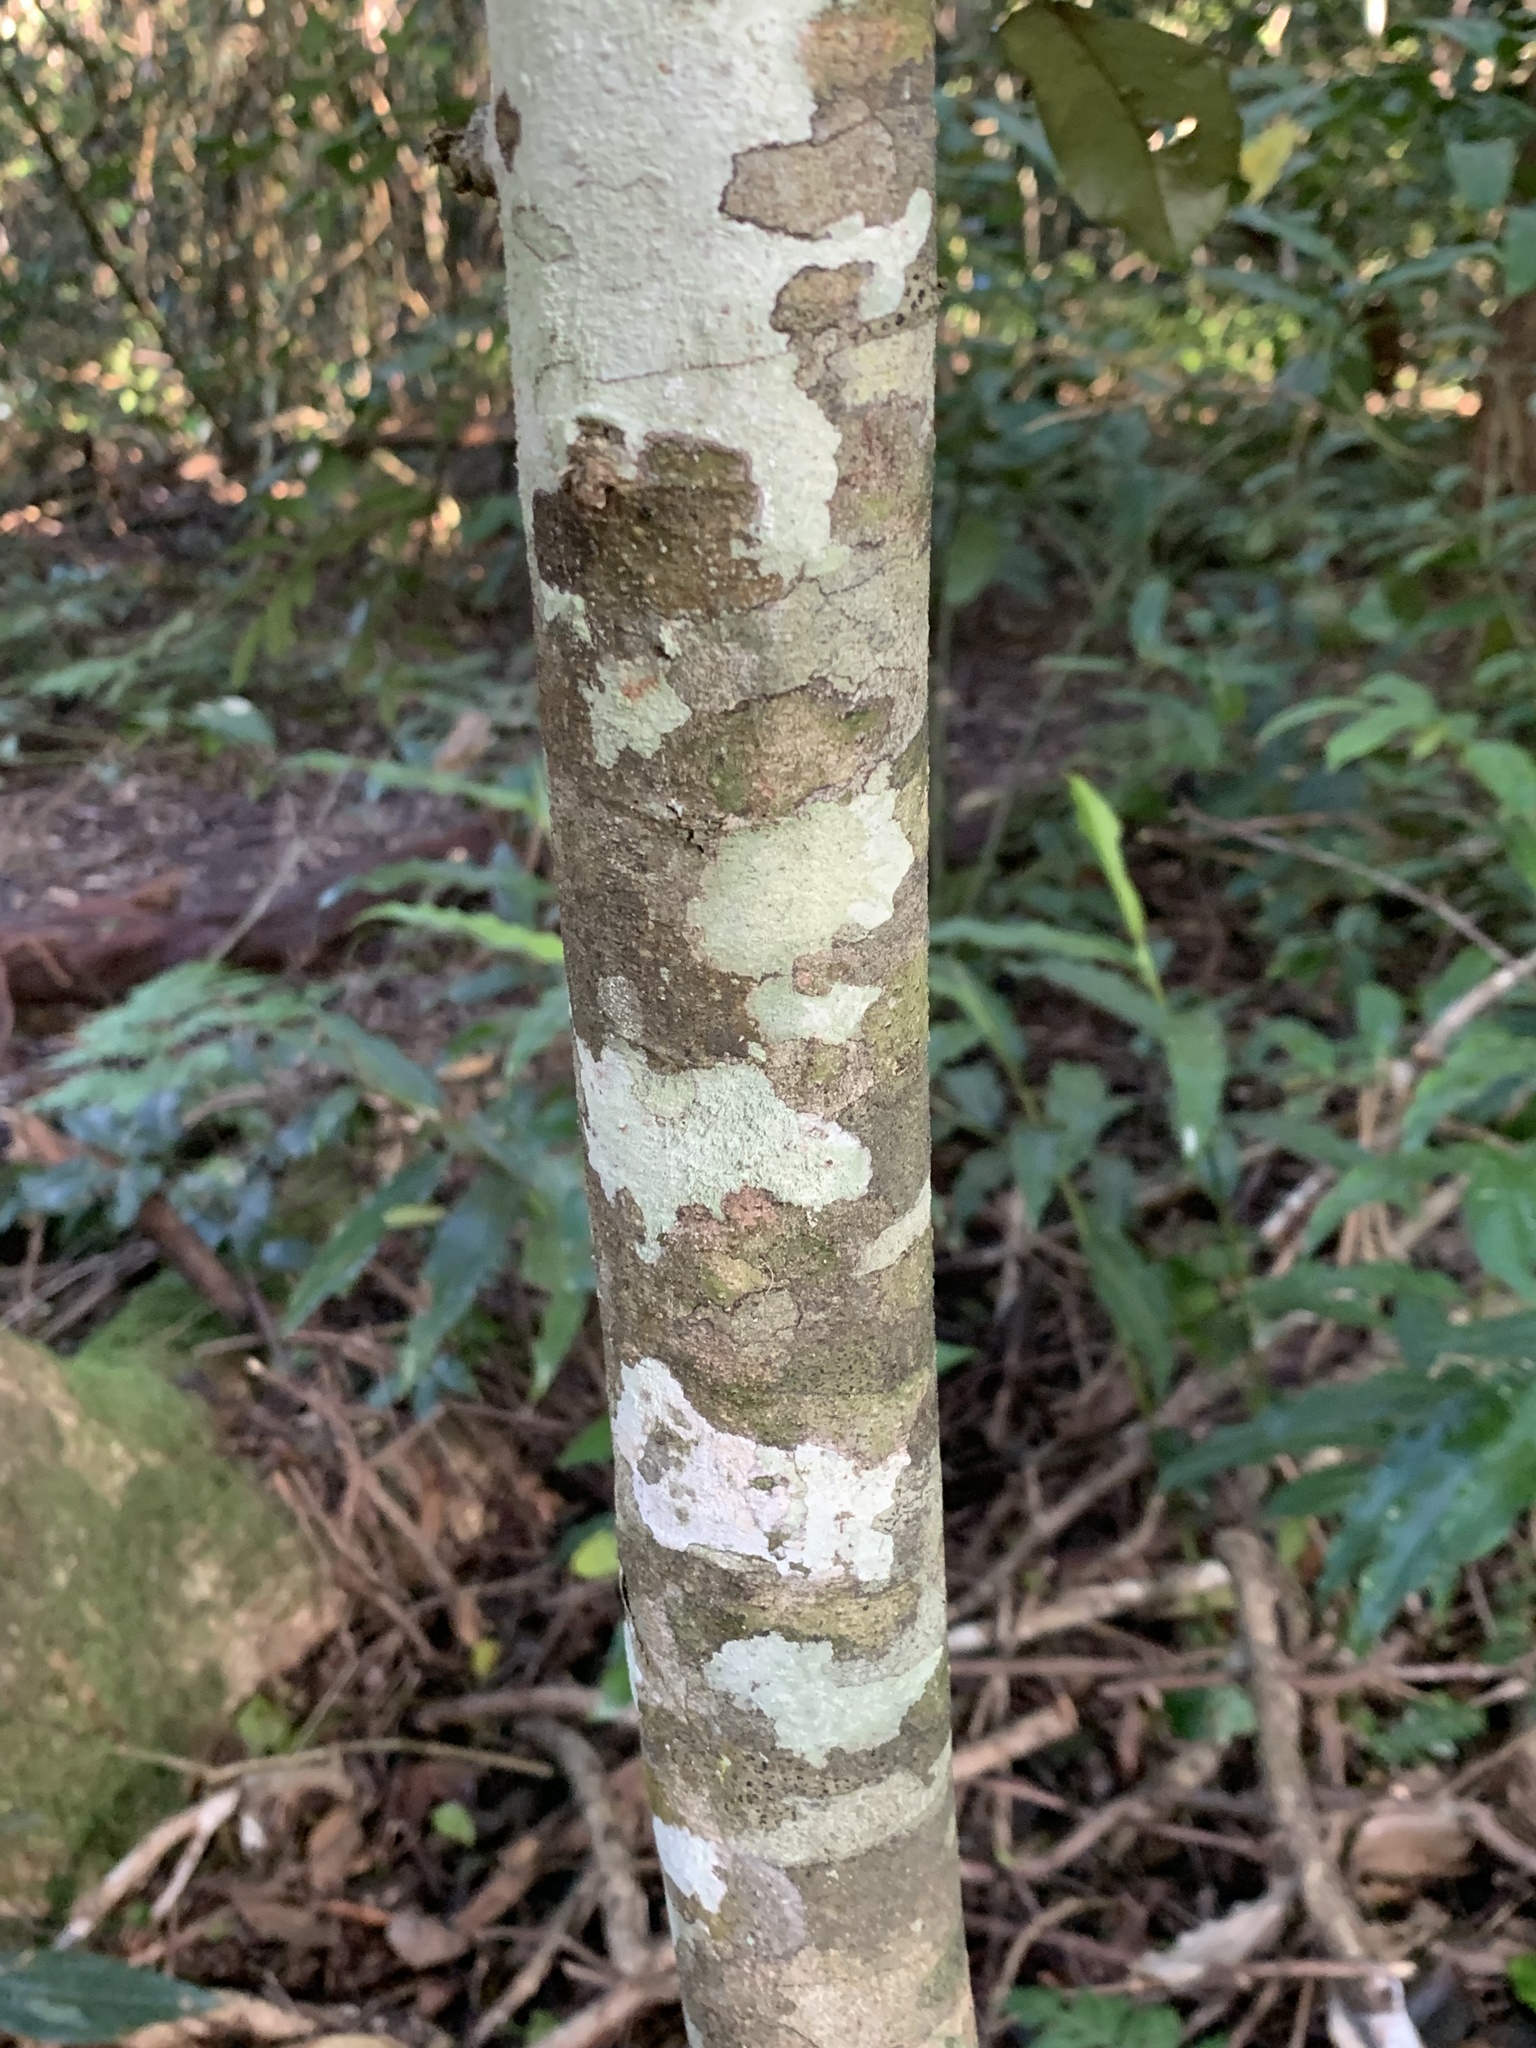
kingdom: Plantae
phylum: Tracheophyta
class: Magnoliopsida
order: Rosales
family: Rhamnaceae
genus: Alphitonia
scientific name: Alphitonia excelsa
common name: Red ash
